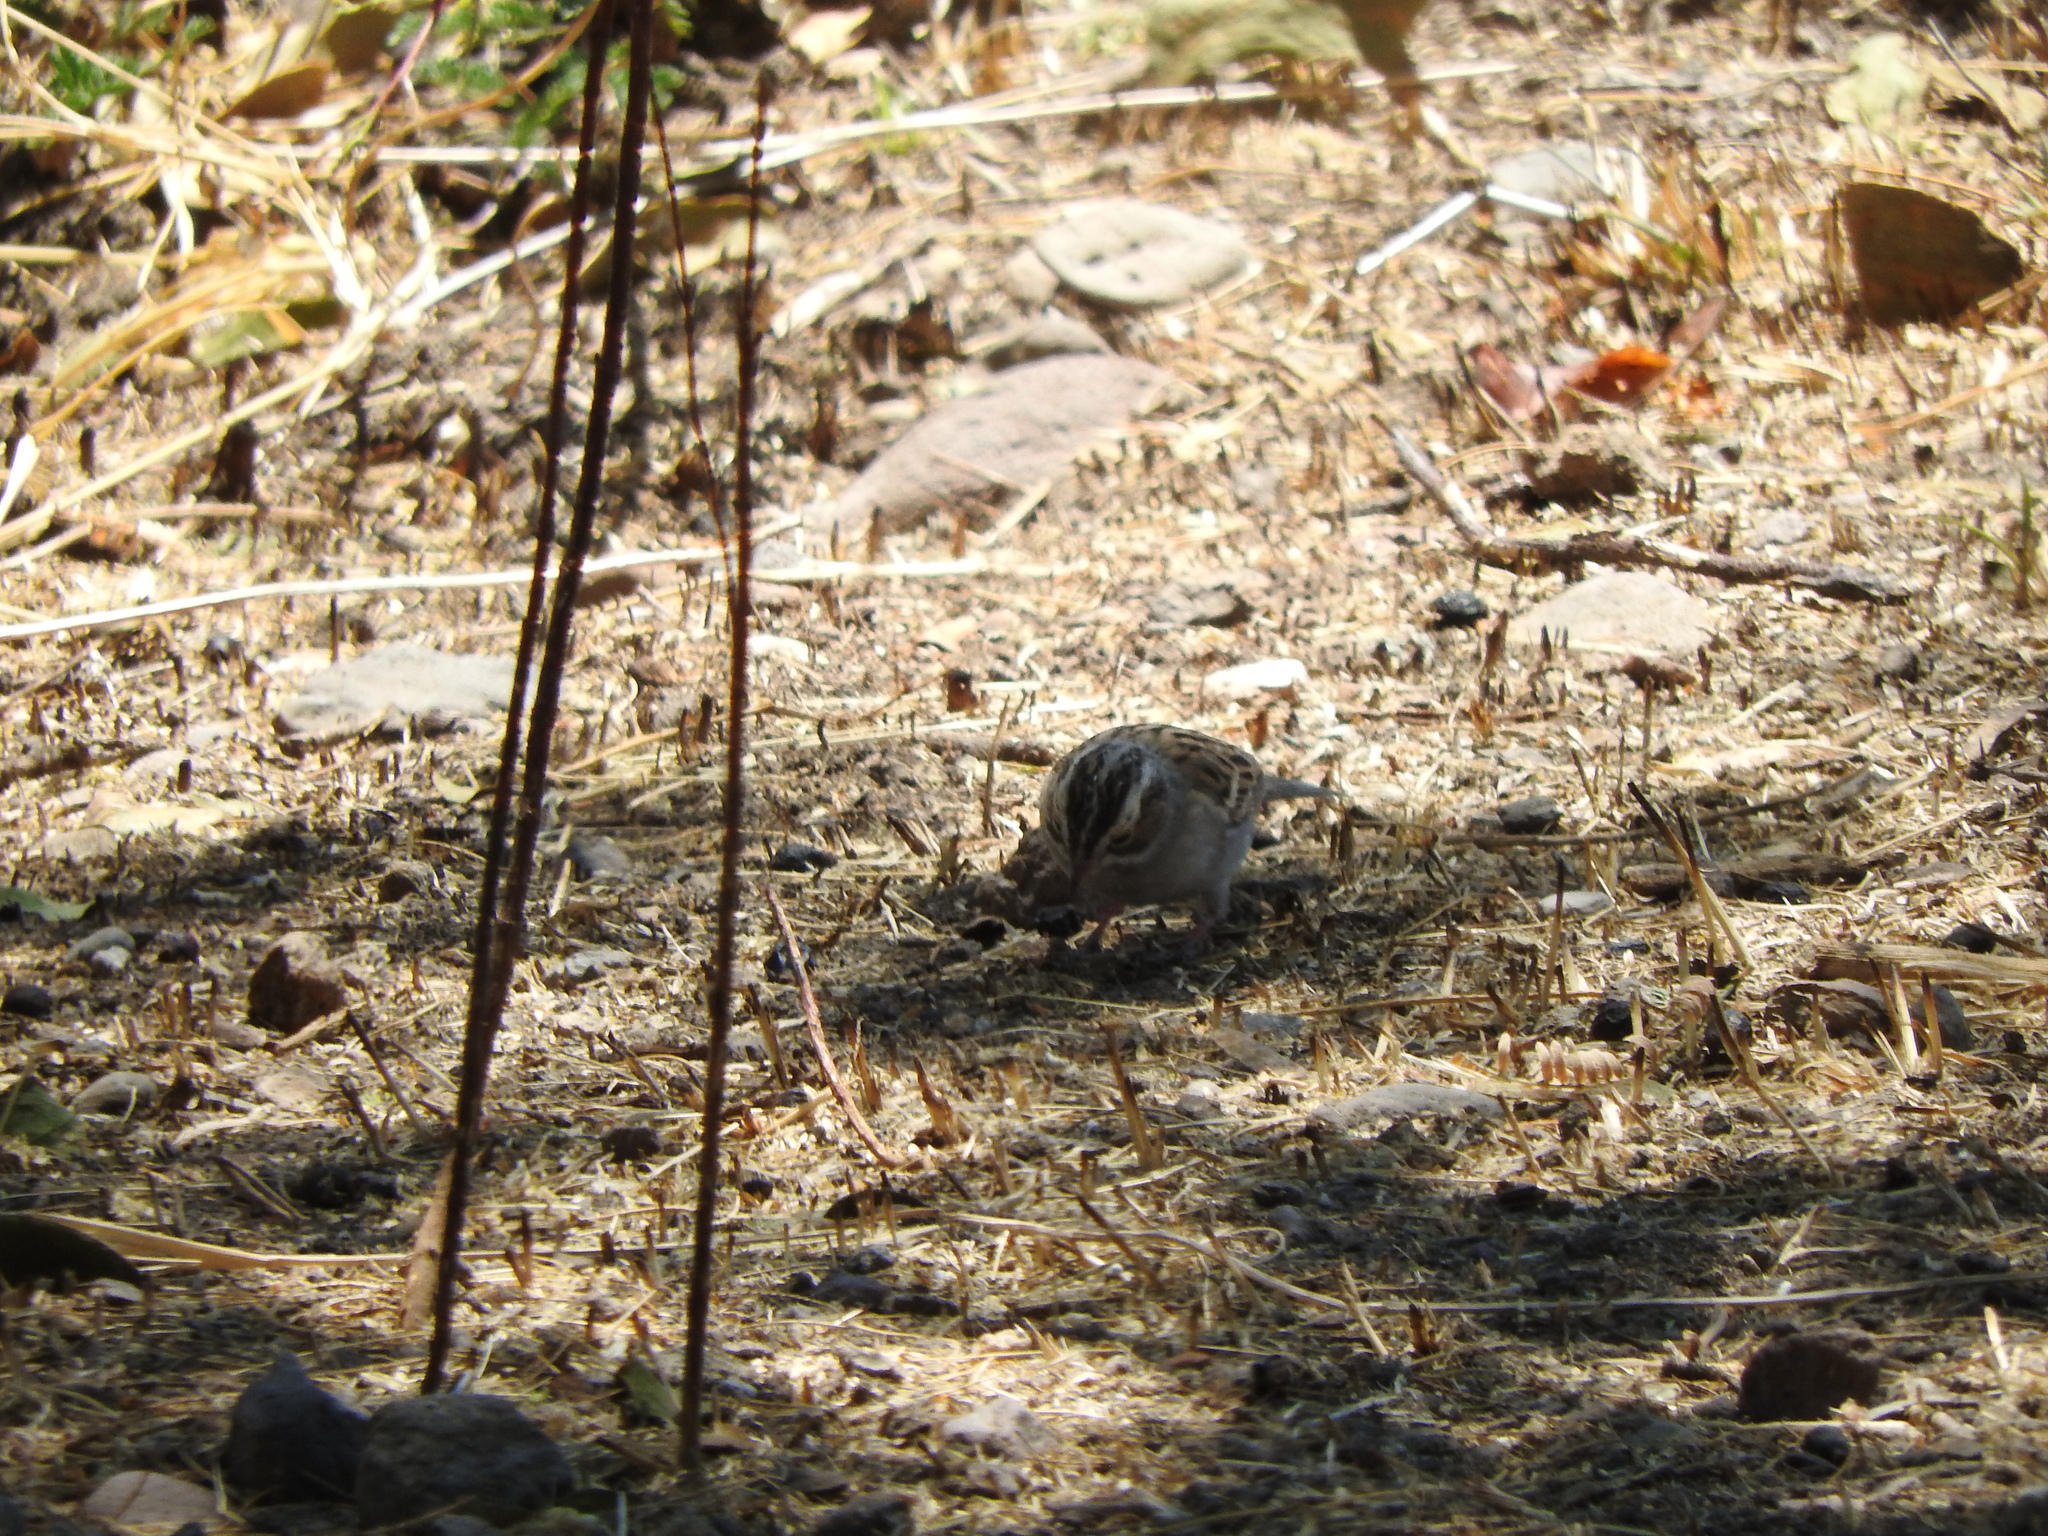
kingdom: Animalia
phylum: Chordata
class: Aves
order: Passeriformes
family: Passerellidae
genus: Chondestes
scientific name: Chondestes grammacus
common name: Lark sparrow
